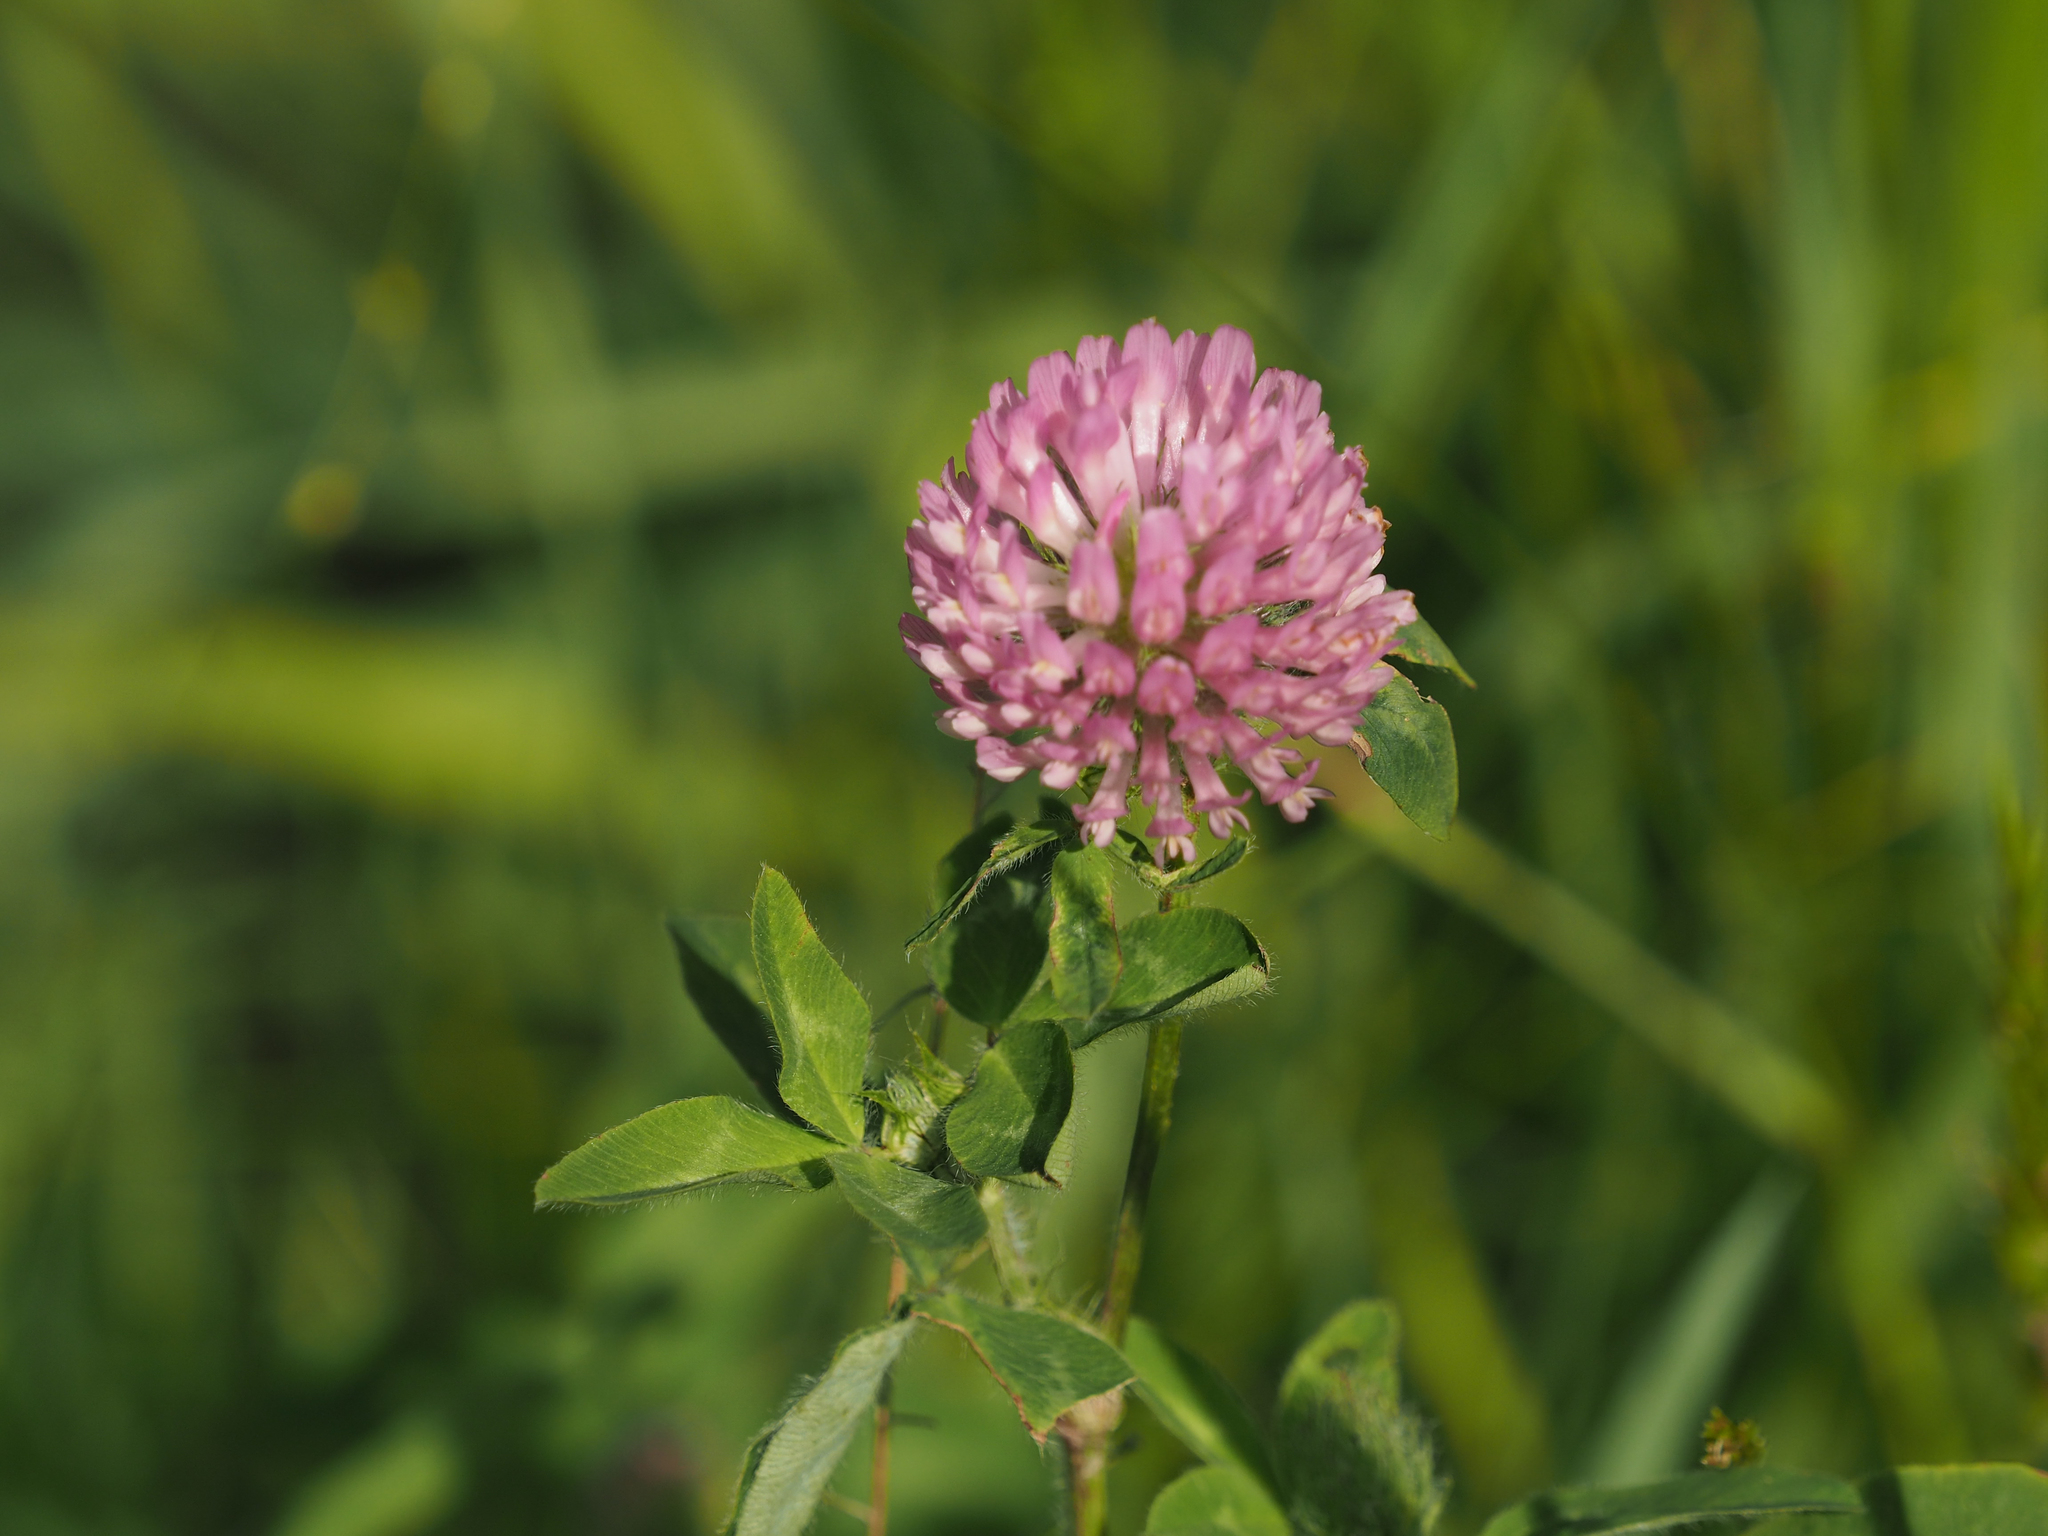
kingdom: Plantae
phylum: Tracheophyta
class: Magnoliopsida
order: Fabales
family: Fabaceae
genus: Trifolium
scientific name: Trifolium pratense
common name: Red clover
